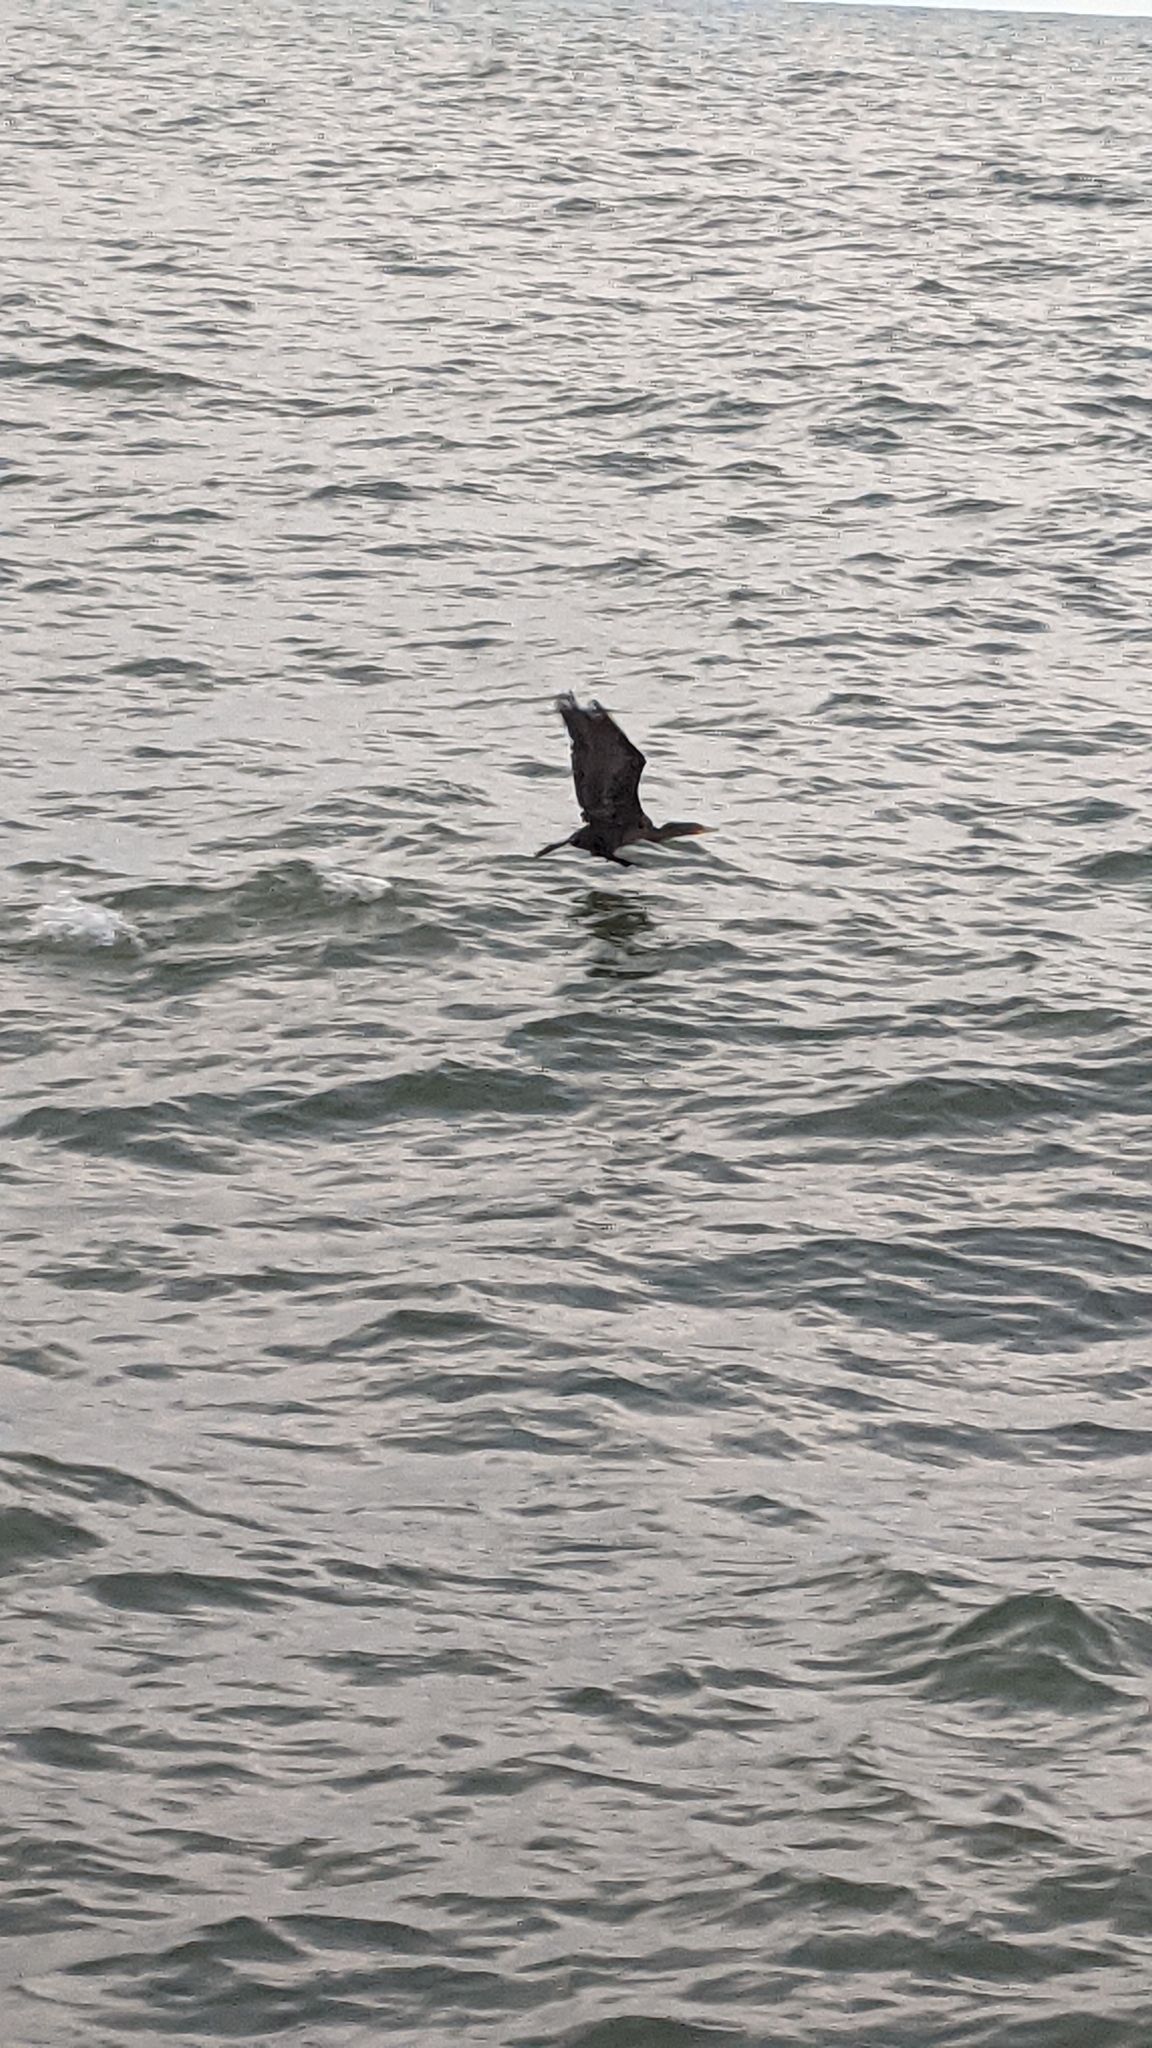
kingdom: Animalia
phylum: Chordata
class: Aves
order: Suliformes
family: Phalacrocoracidae
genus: Phalacrocorax
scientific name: Phalacrocorax auritus
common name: Double-crested cormorant
